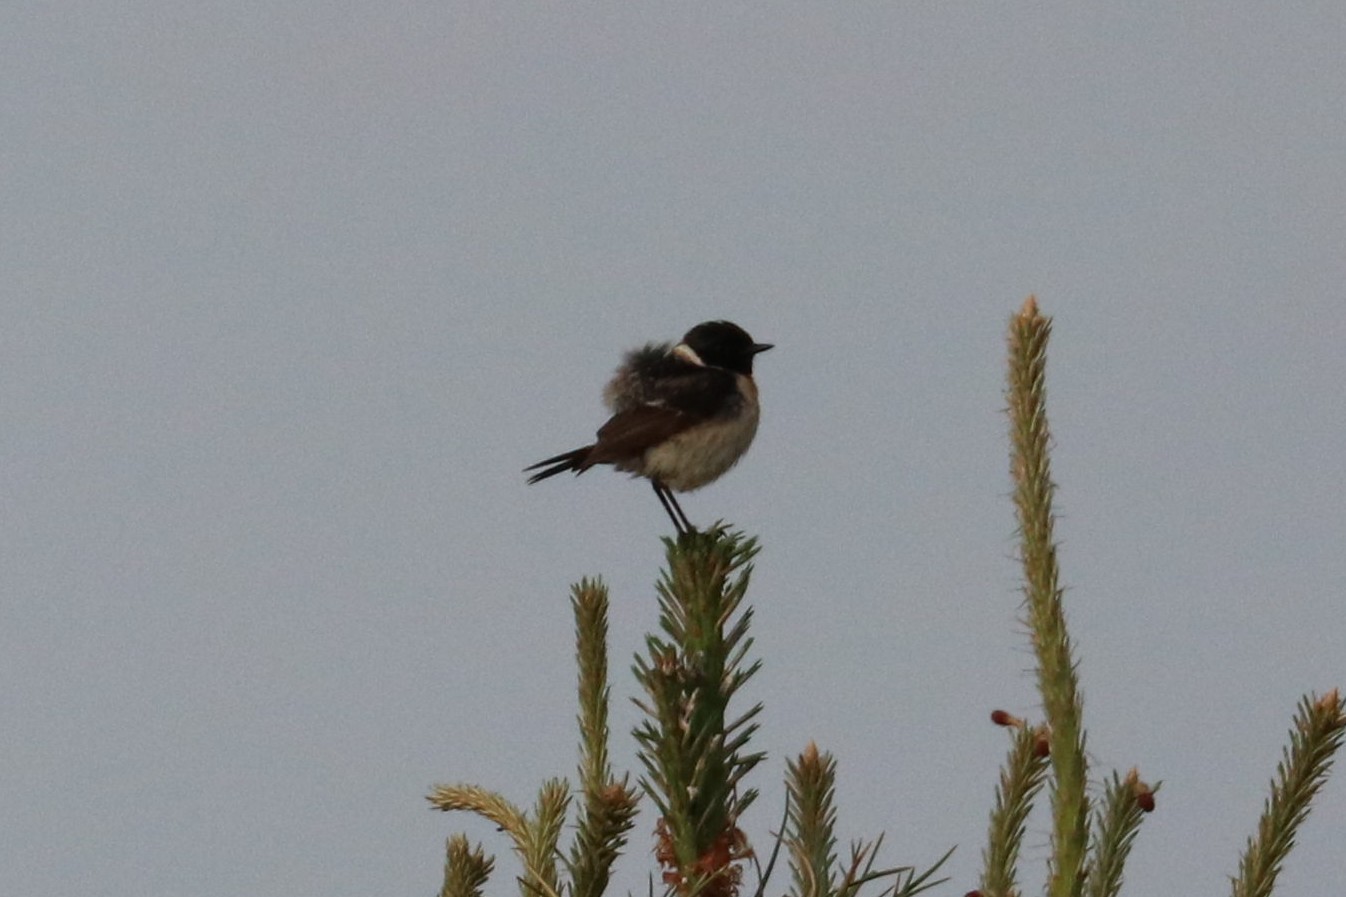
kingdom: Animalia
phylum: Chordata
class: Aves
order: Passeriformes
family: Muscicapidae
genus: Saxicola
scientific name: Saxicola maurus
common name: Siberian stonechat
